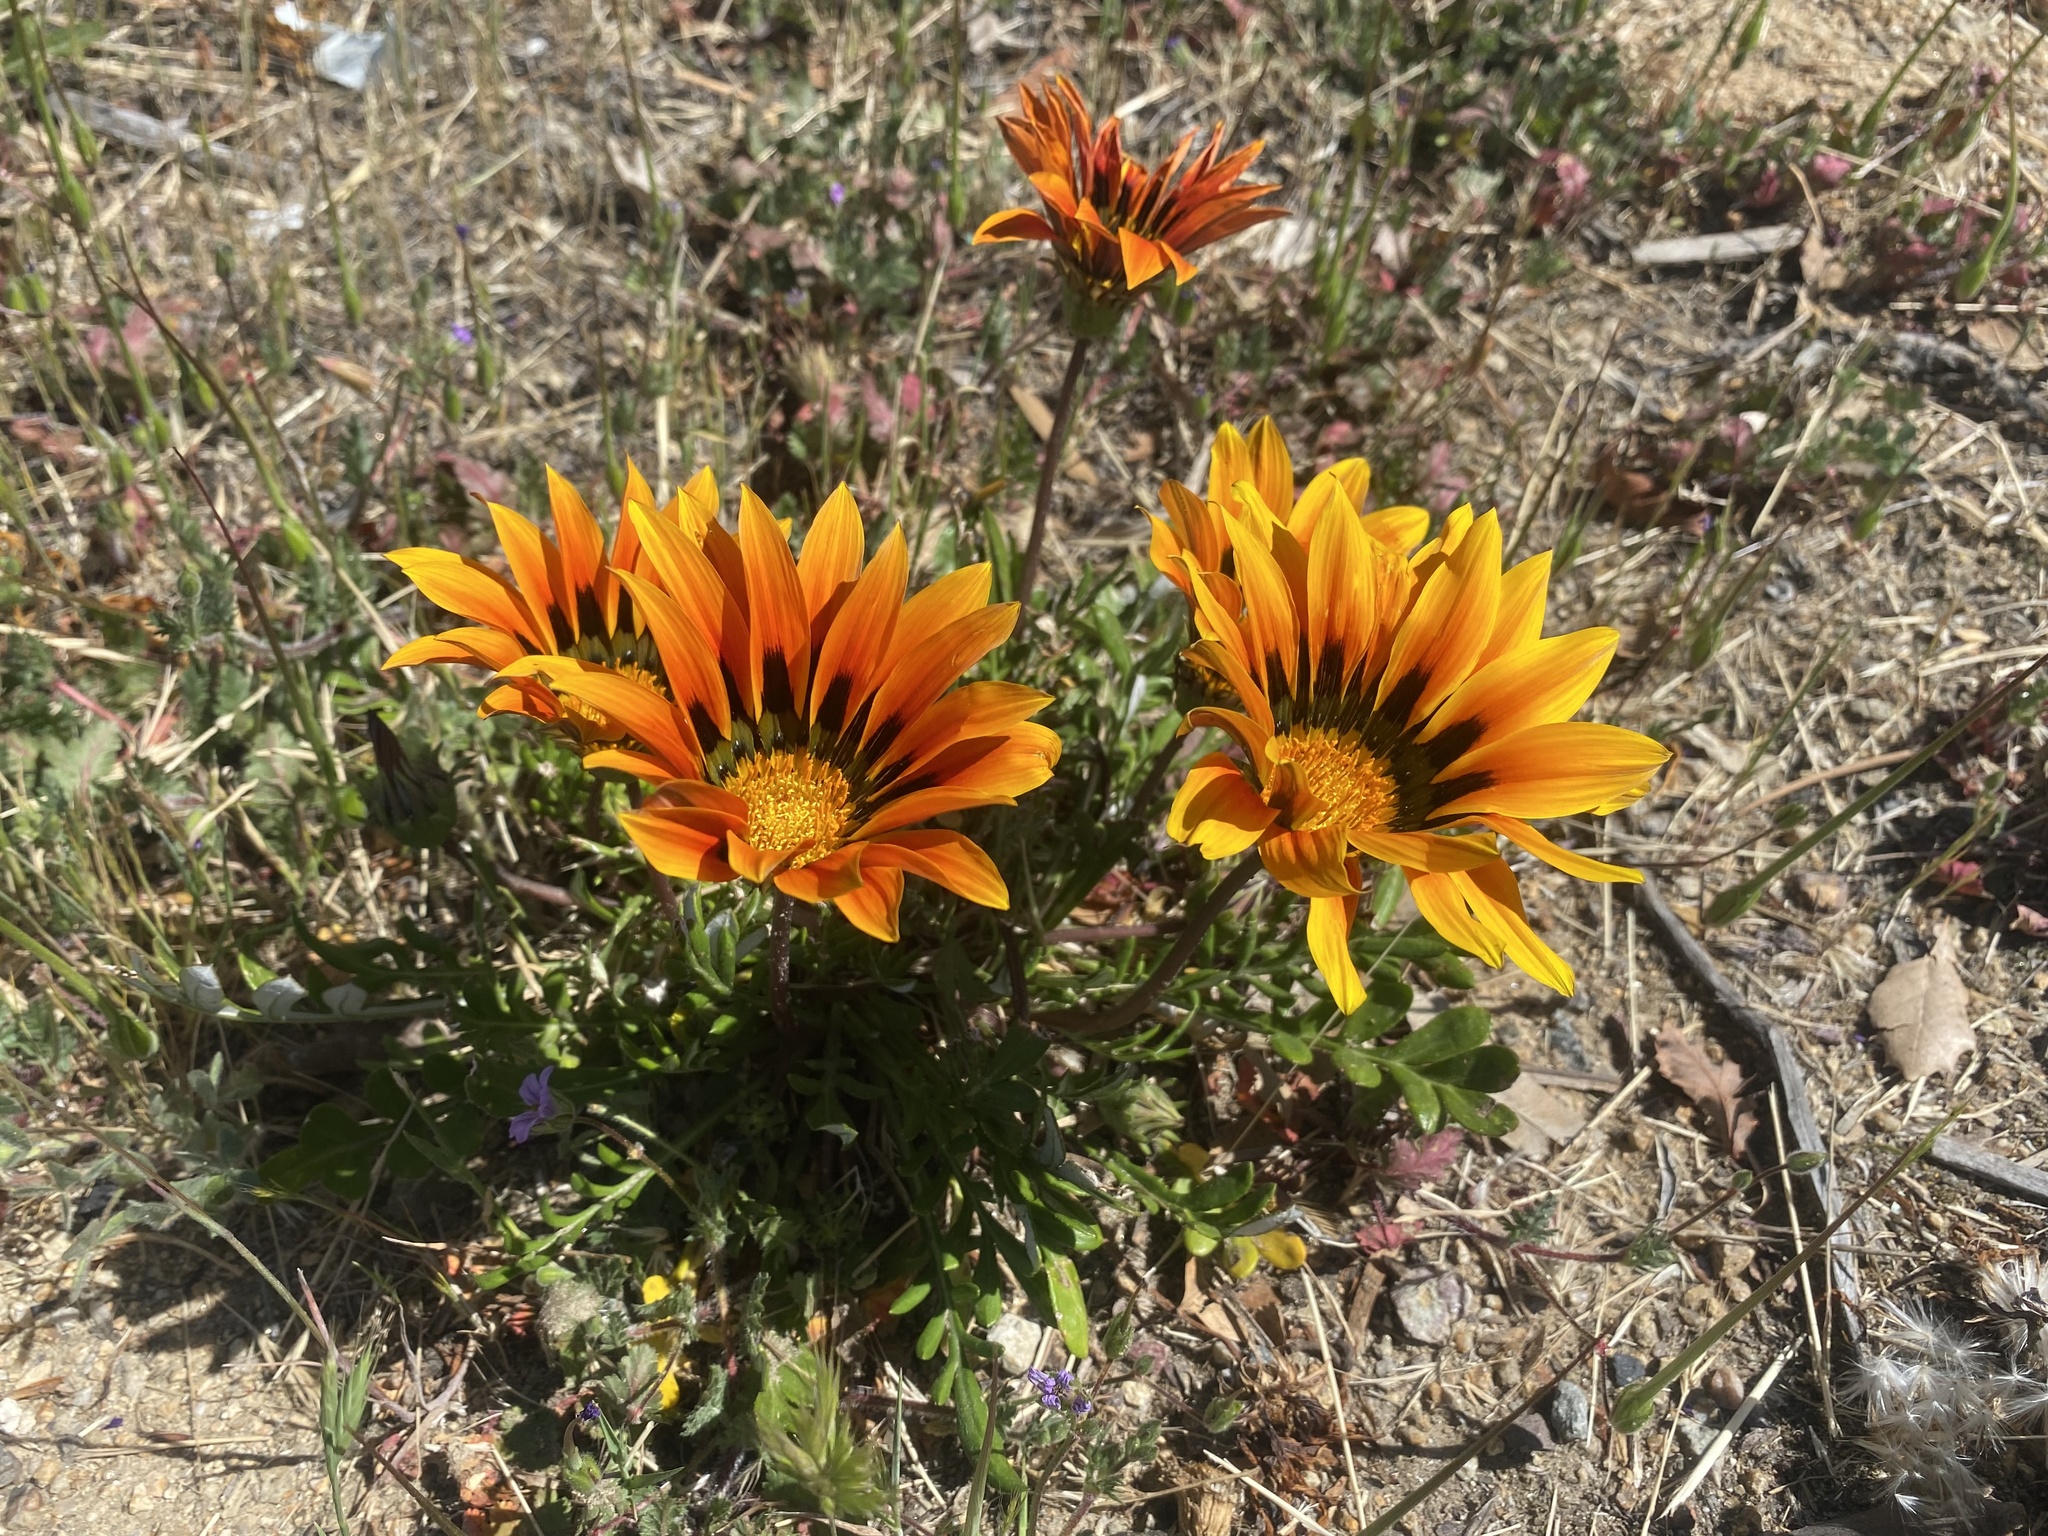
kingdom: Plantae
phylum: Tracheophyta
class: Magnoliopsida
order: Asterales
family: Asteraceae
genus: Gazania
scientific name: Gazania splendens
